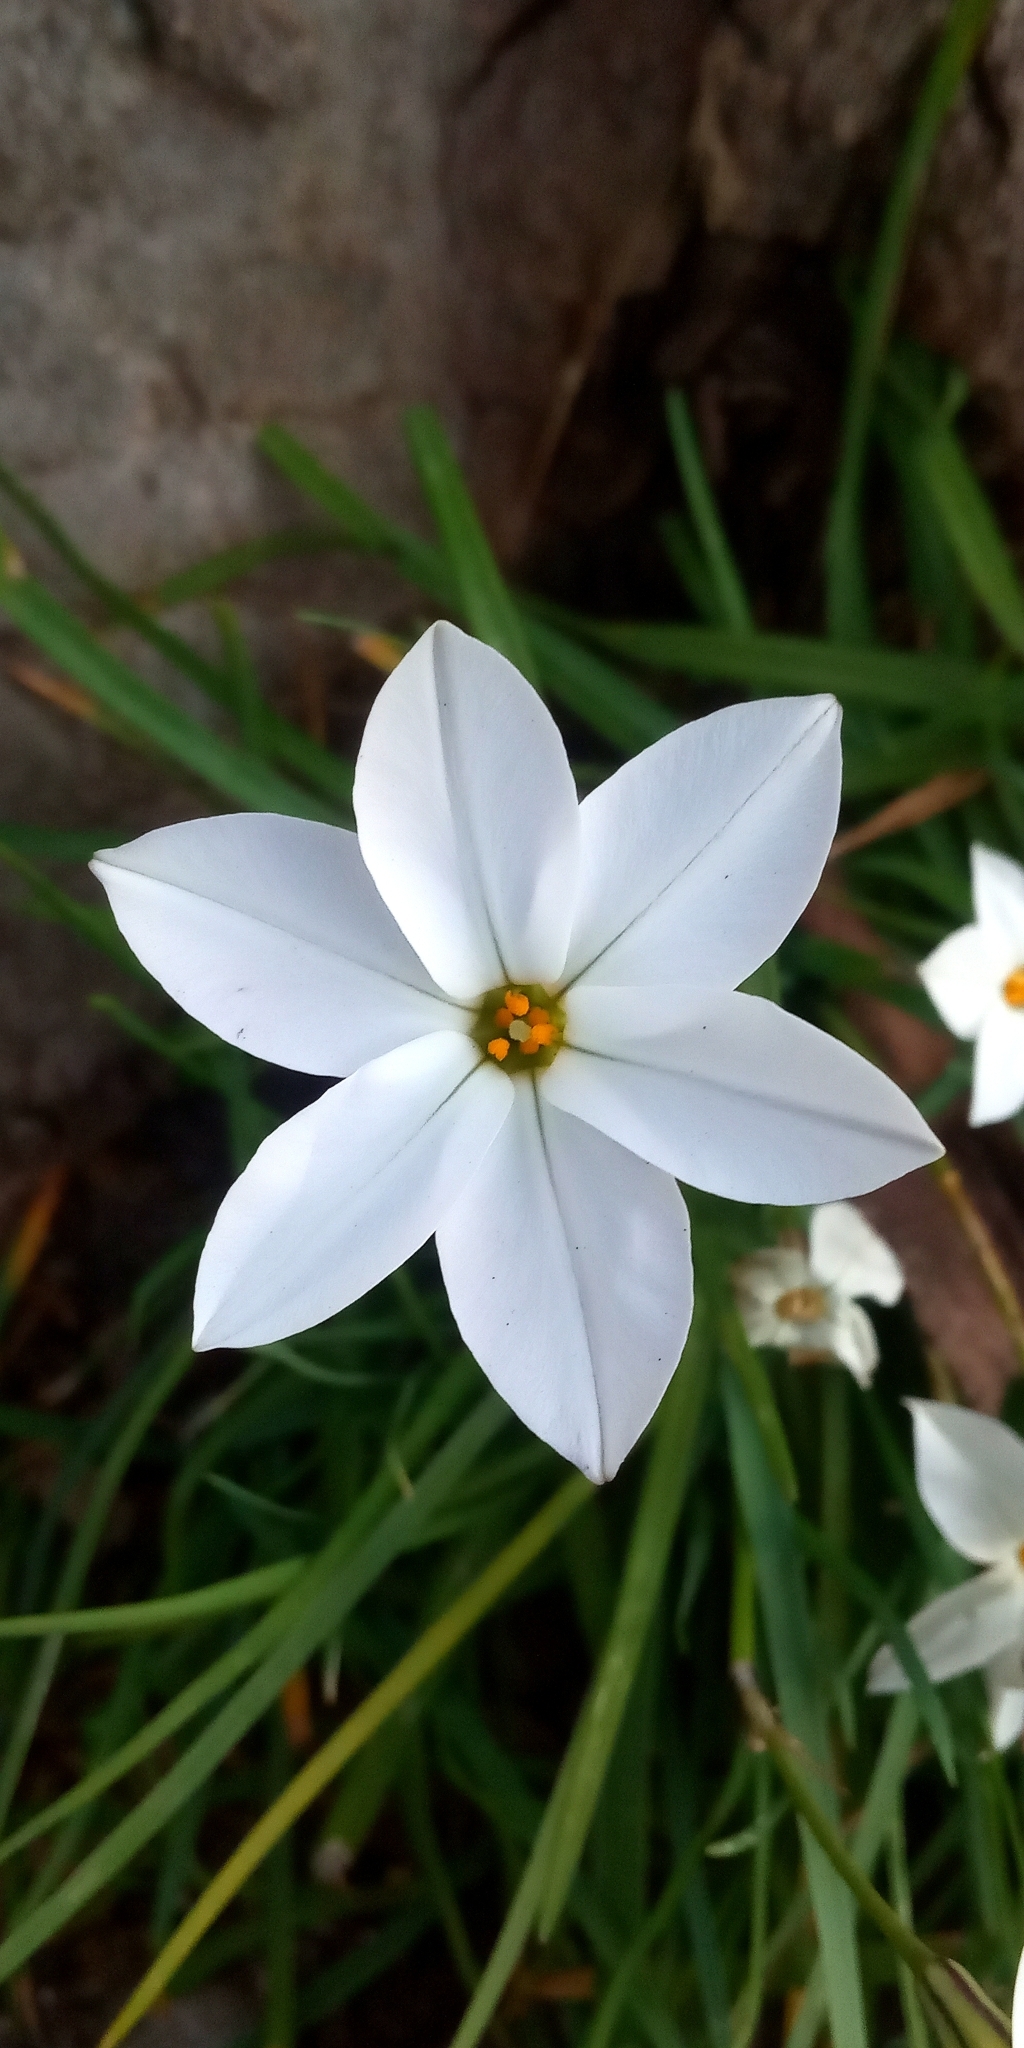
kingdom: Plantae
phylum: Tracheophyta
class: Liliopsida
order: Asparagales
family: Amaryllidaceae
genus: Ipheion
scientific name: Ipheion uniflorum
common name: Spring starflower
